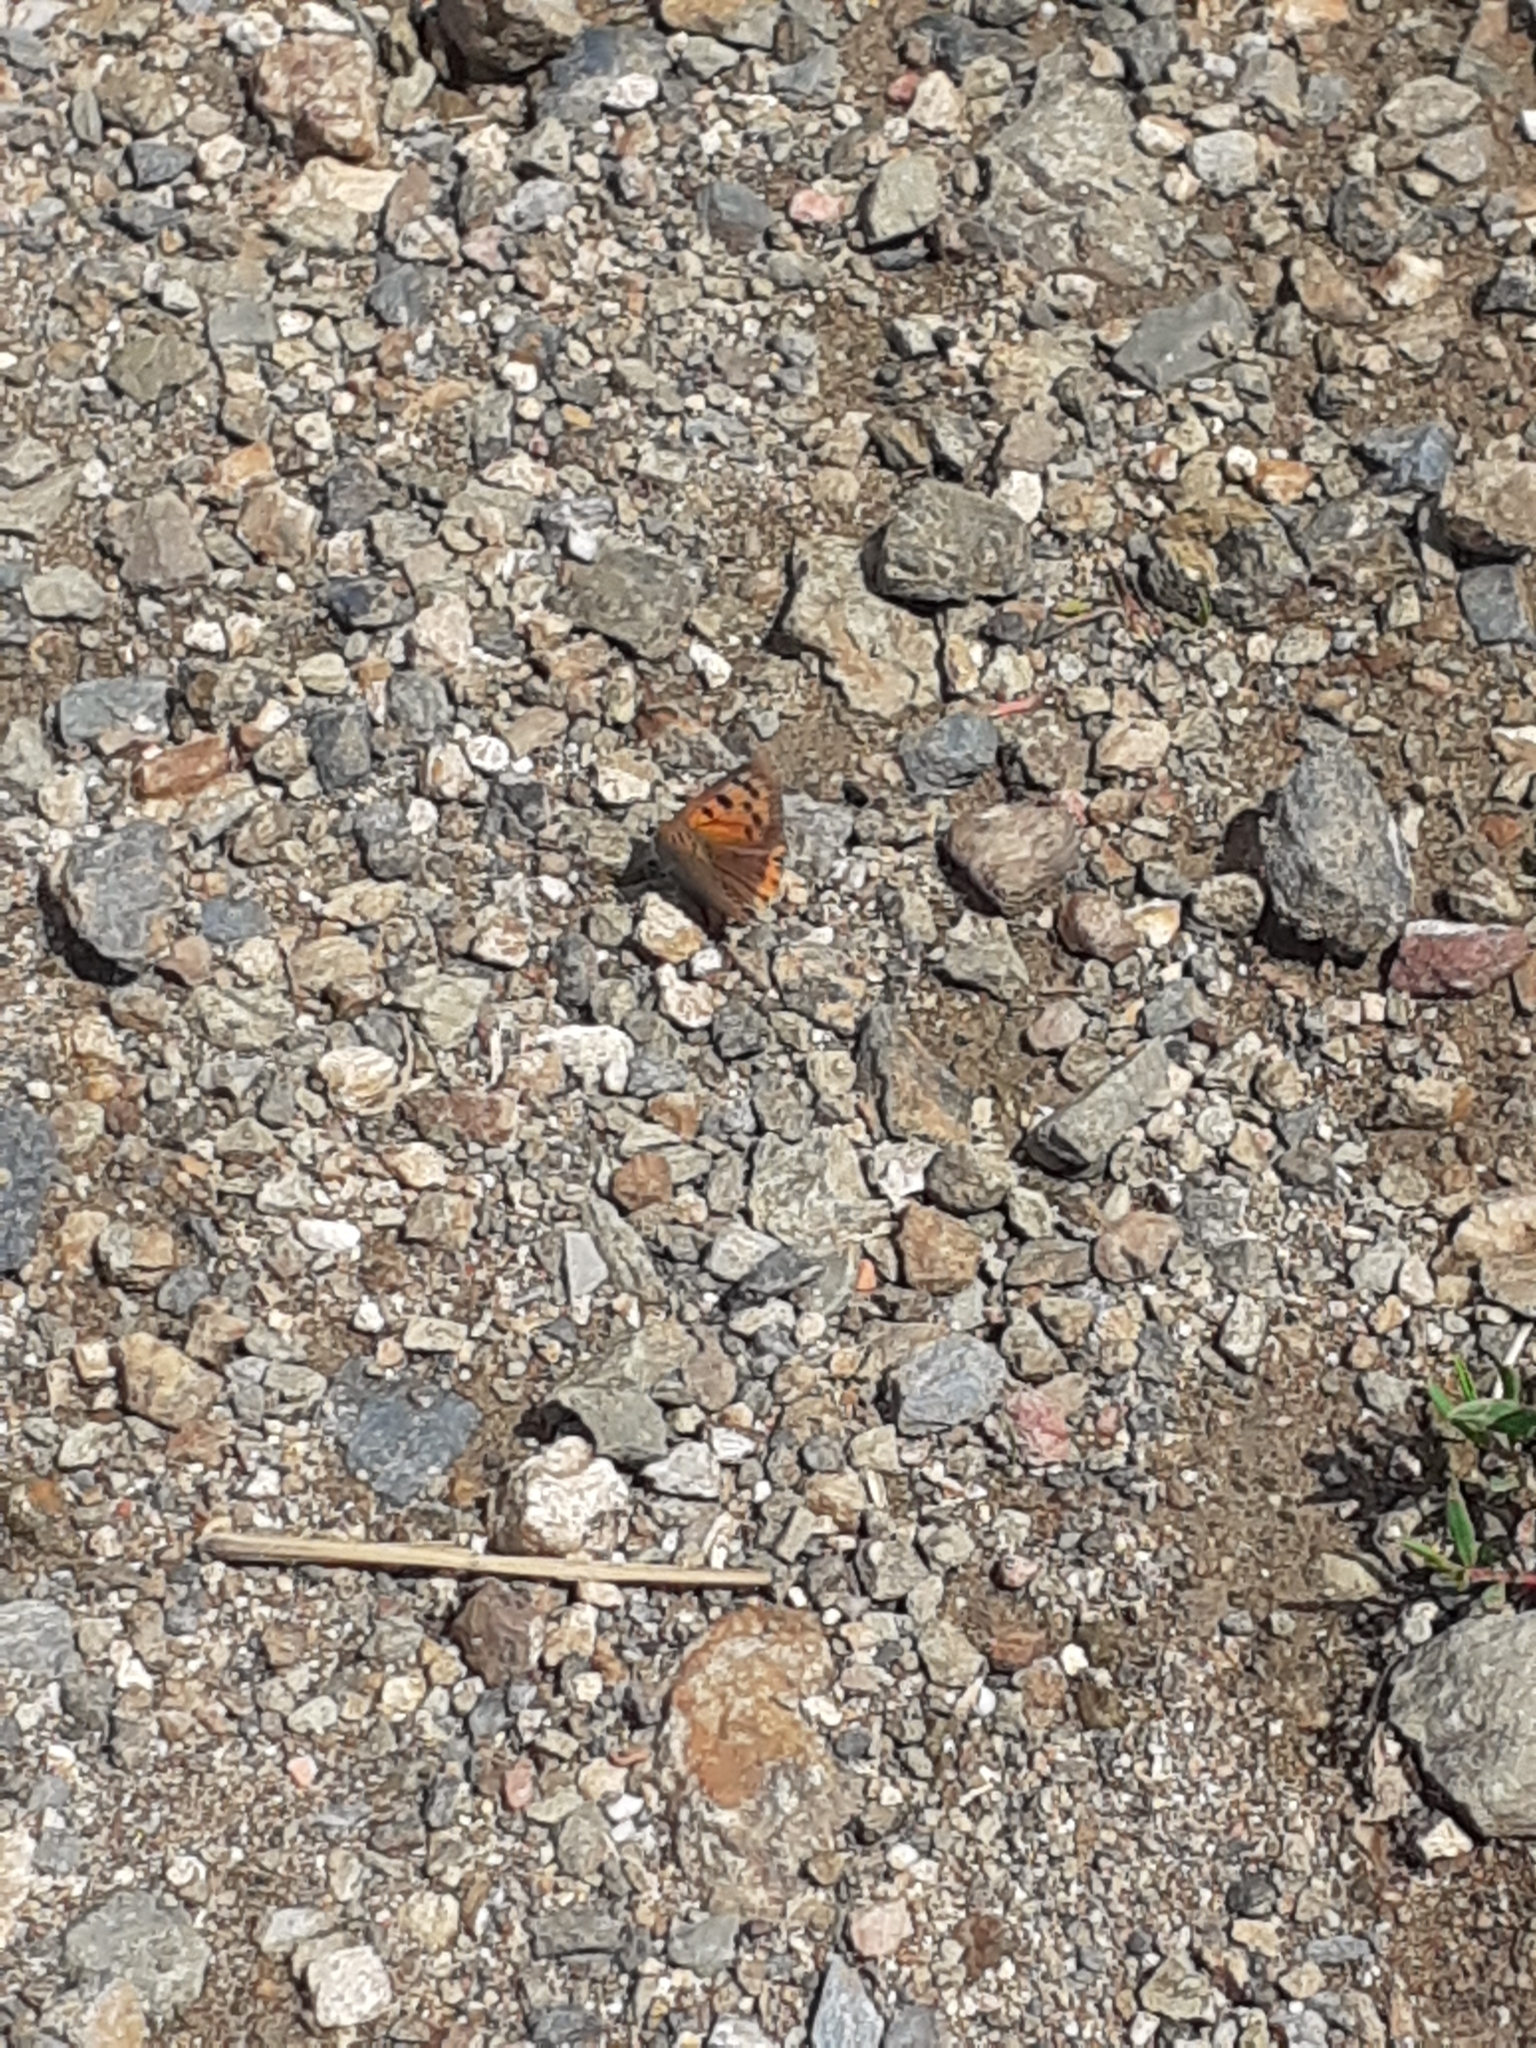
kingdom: Animalia
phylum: Arthropoda
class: Insecta
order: Lepidoptera
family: Lycaenidae
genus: Lycaena
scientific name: Lycaena phlaeas
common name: Small copper
